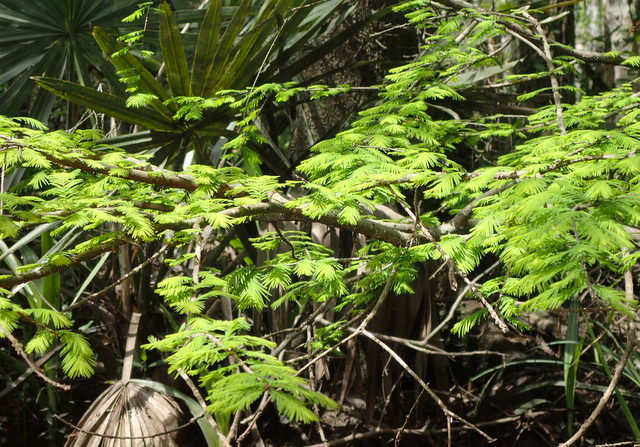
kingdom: Plantae
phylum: Tracheophyta
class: Pinopsida
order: Pinales
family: Cupressaceae
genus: Taxodium
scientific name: Taxodium distichum
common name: Bald cypress
